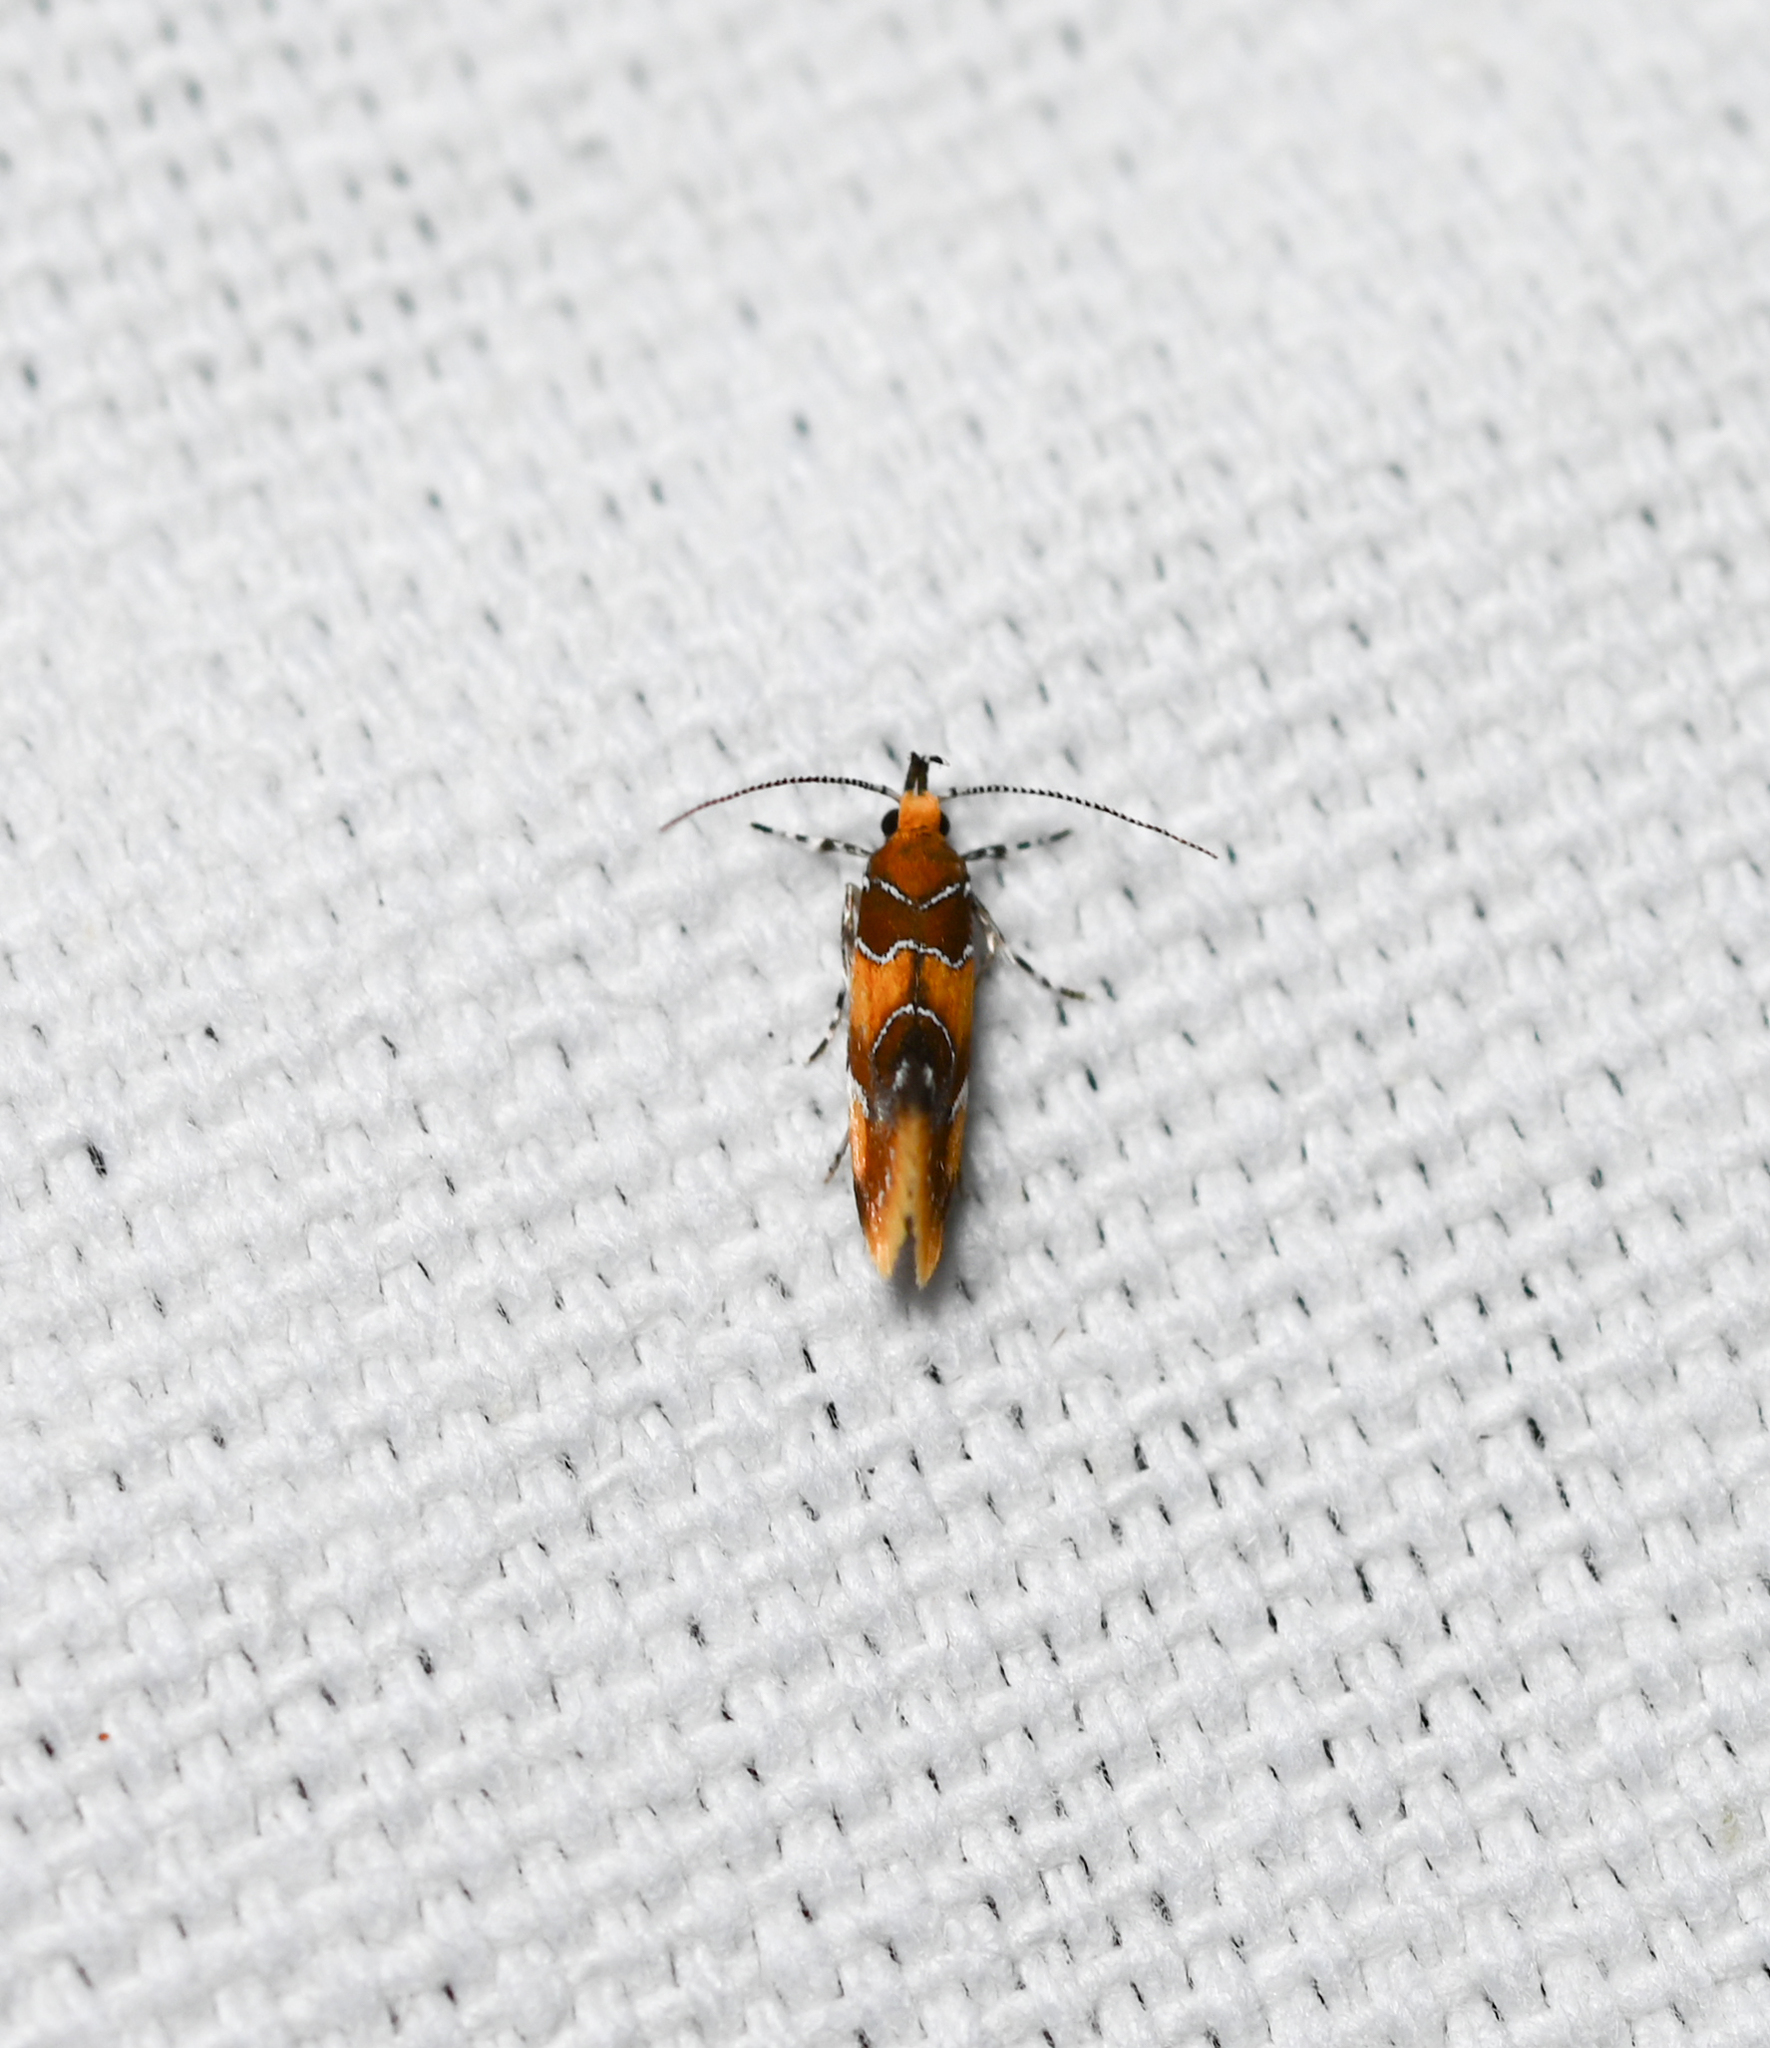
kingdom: Animalia
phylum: Arthropoda
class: Insecta
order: Lepidoptera
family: Oecophoridae
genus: Callima
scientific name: Callima argenticinctella
